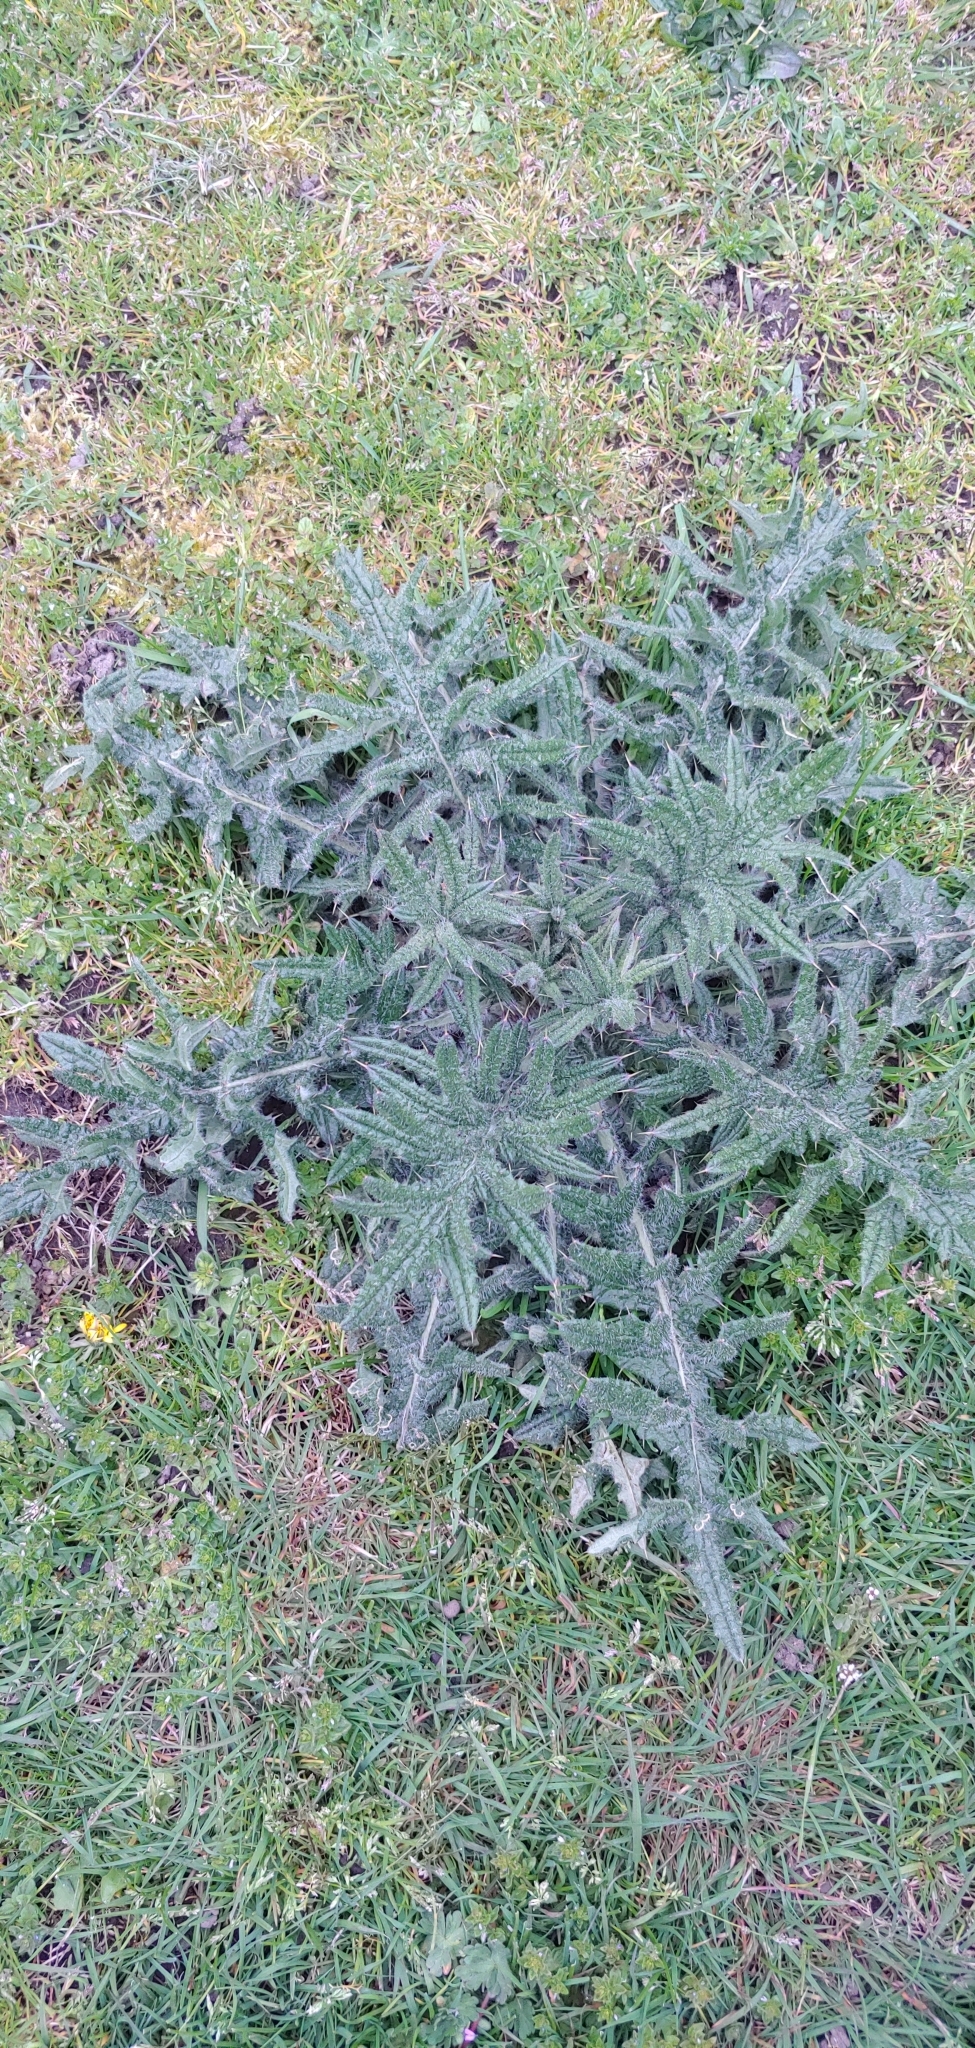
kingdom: Plantae
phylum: Tracheophyta
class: Magnoliopsida
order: Asterales
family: Asteraceae
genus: Cirsium
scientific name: Cirsium vulgare
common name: Bull thistle
